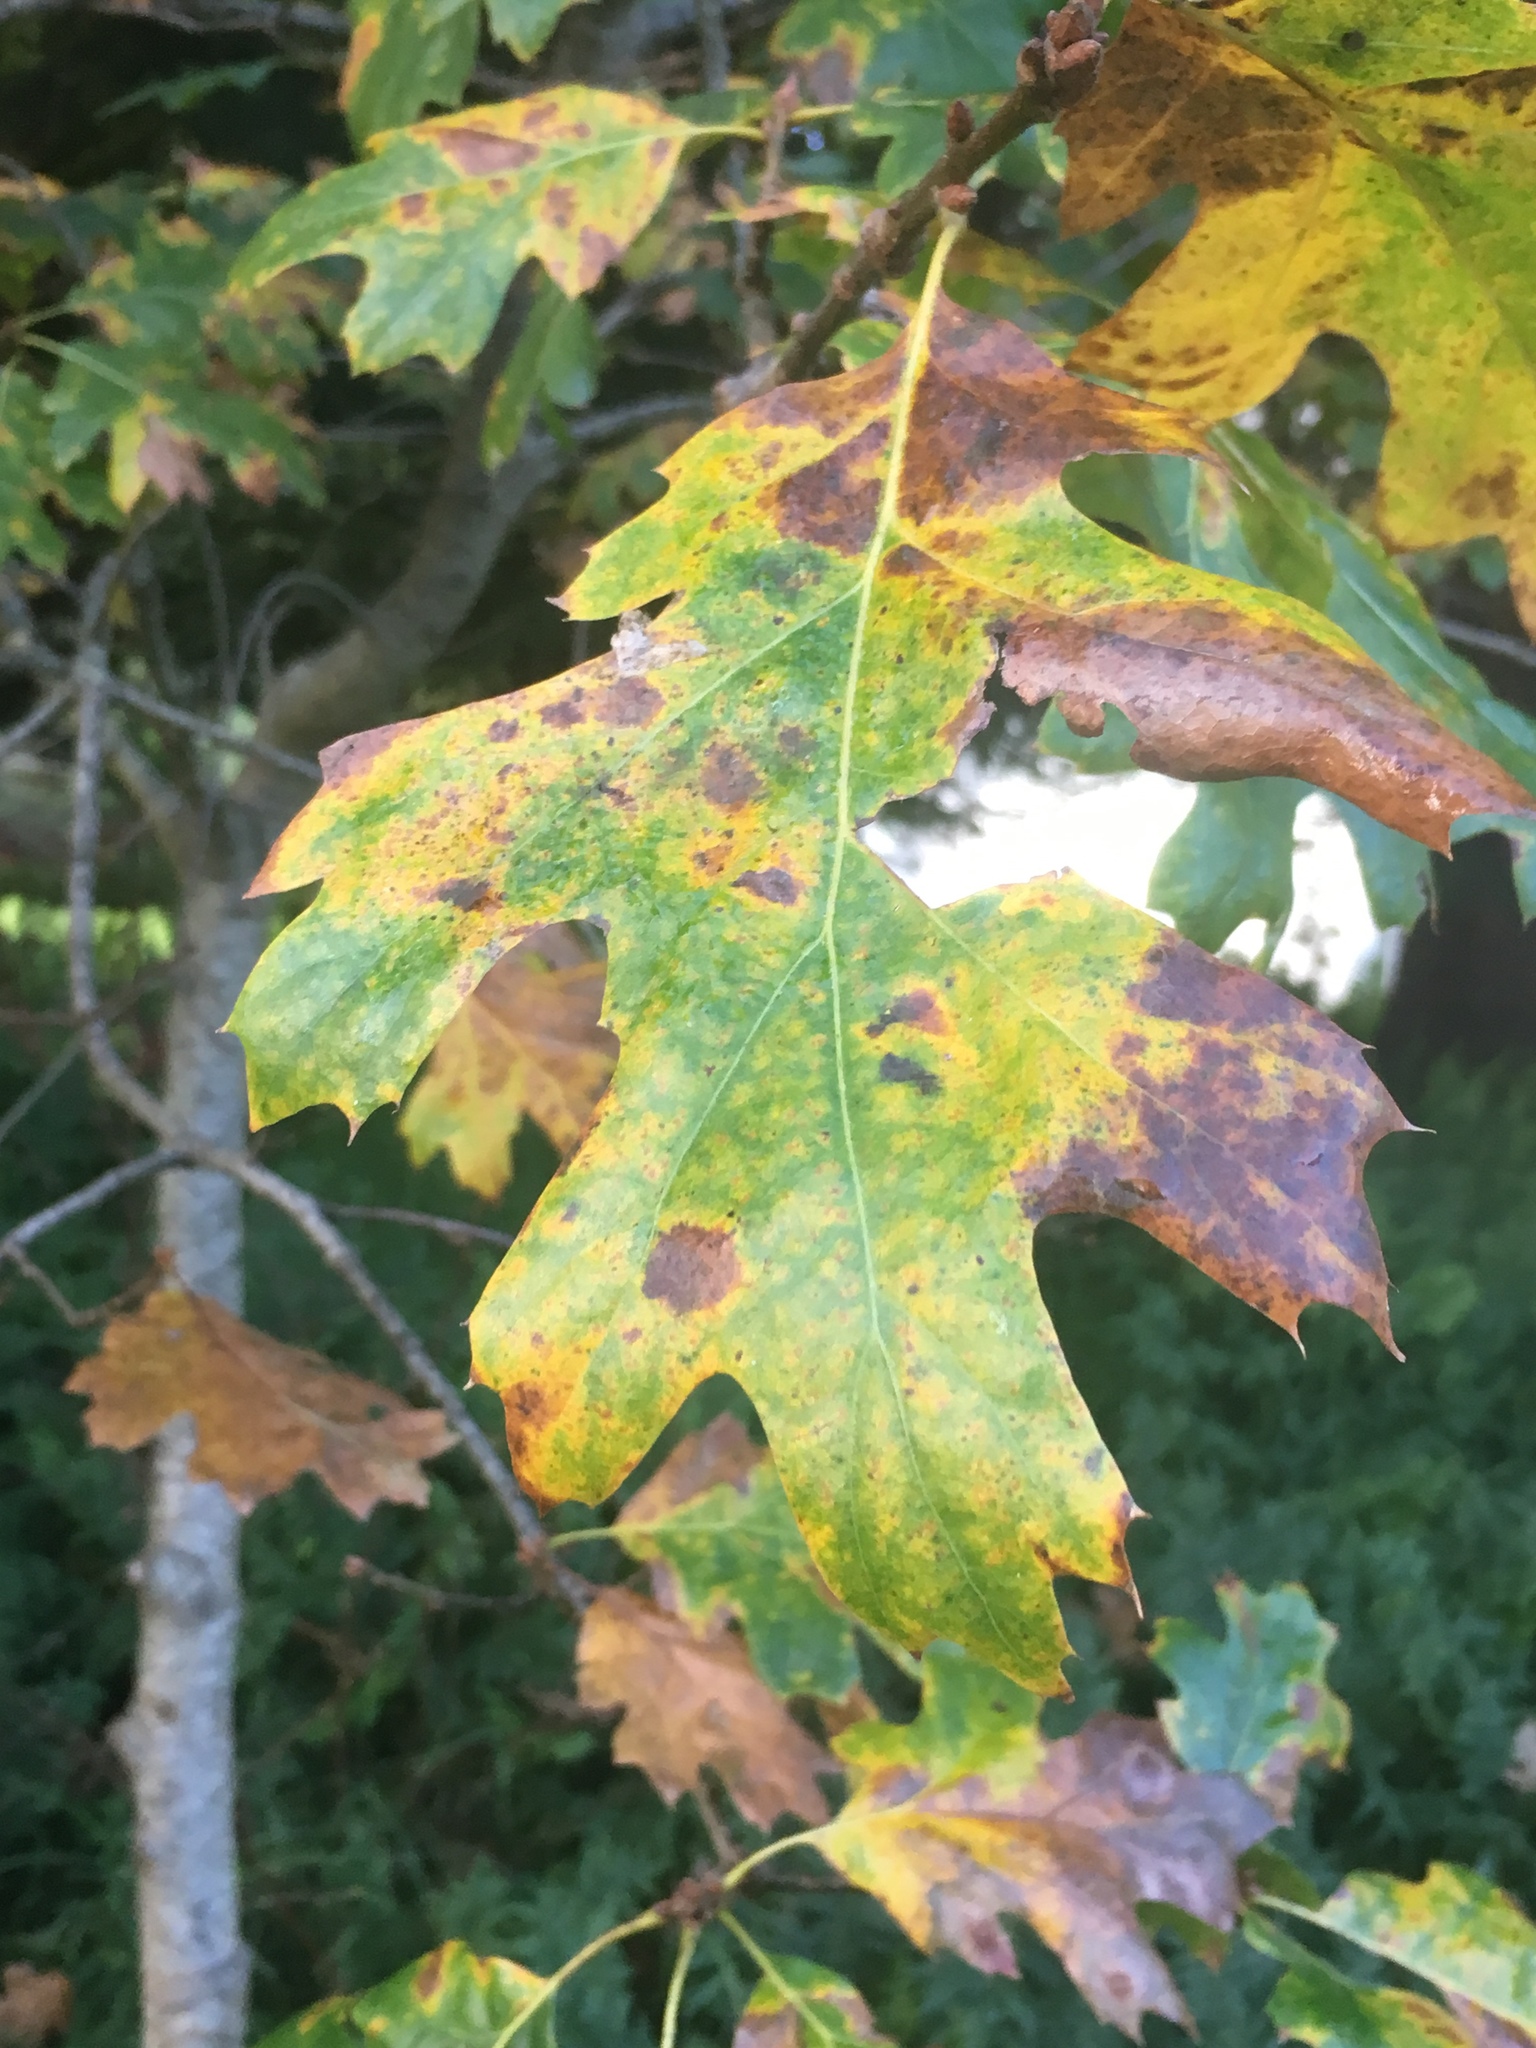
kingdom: Plantae
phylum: Tracheophyta
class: Magnoliopsida
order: Fagales
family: Fagaceae
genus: Quercus
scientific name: Quercus kelloggii
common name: California black oak
